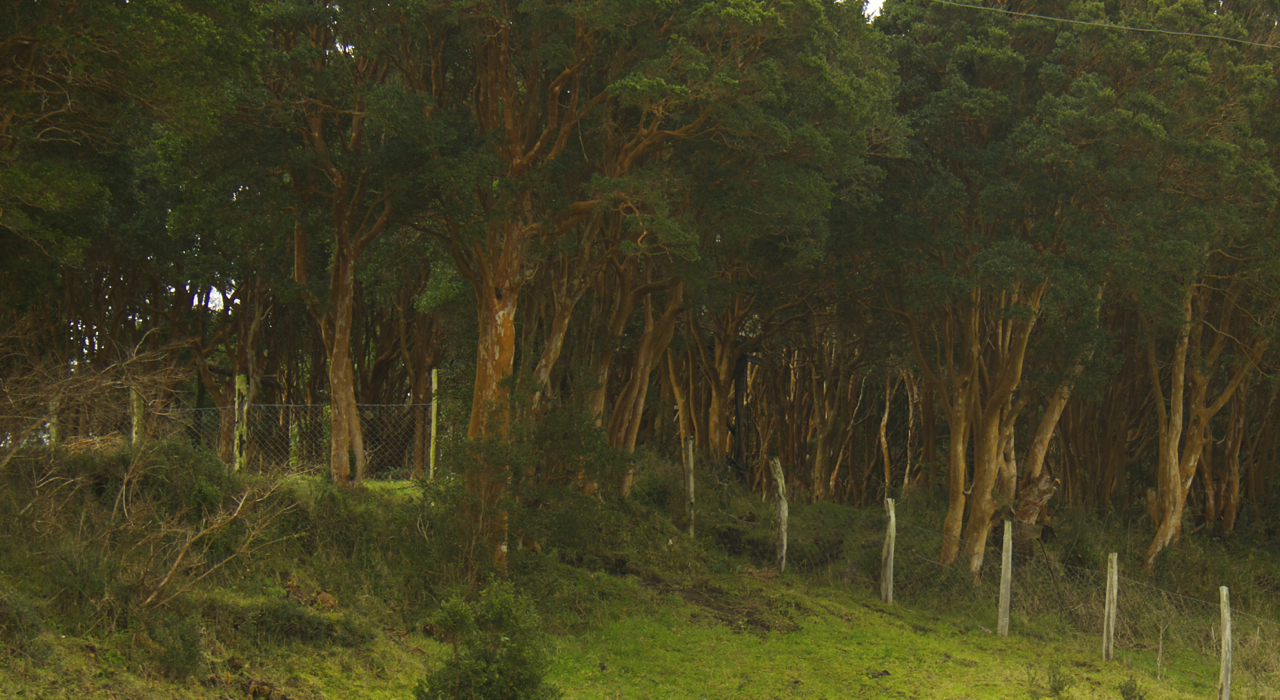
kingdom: Plantae
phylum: Tracheophyta
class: Magnoliopsida
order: Myrtales
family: Myrtaceae
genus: Luma
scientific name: Luma apiculata
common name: Chilean myrtle
